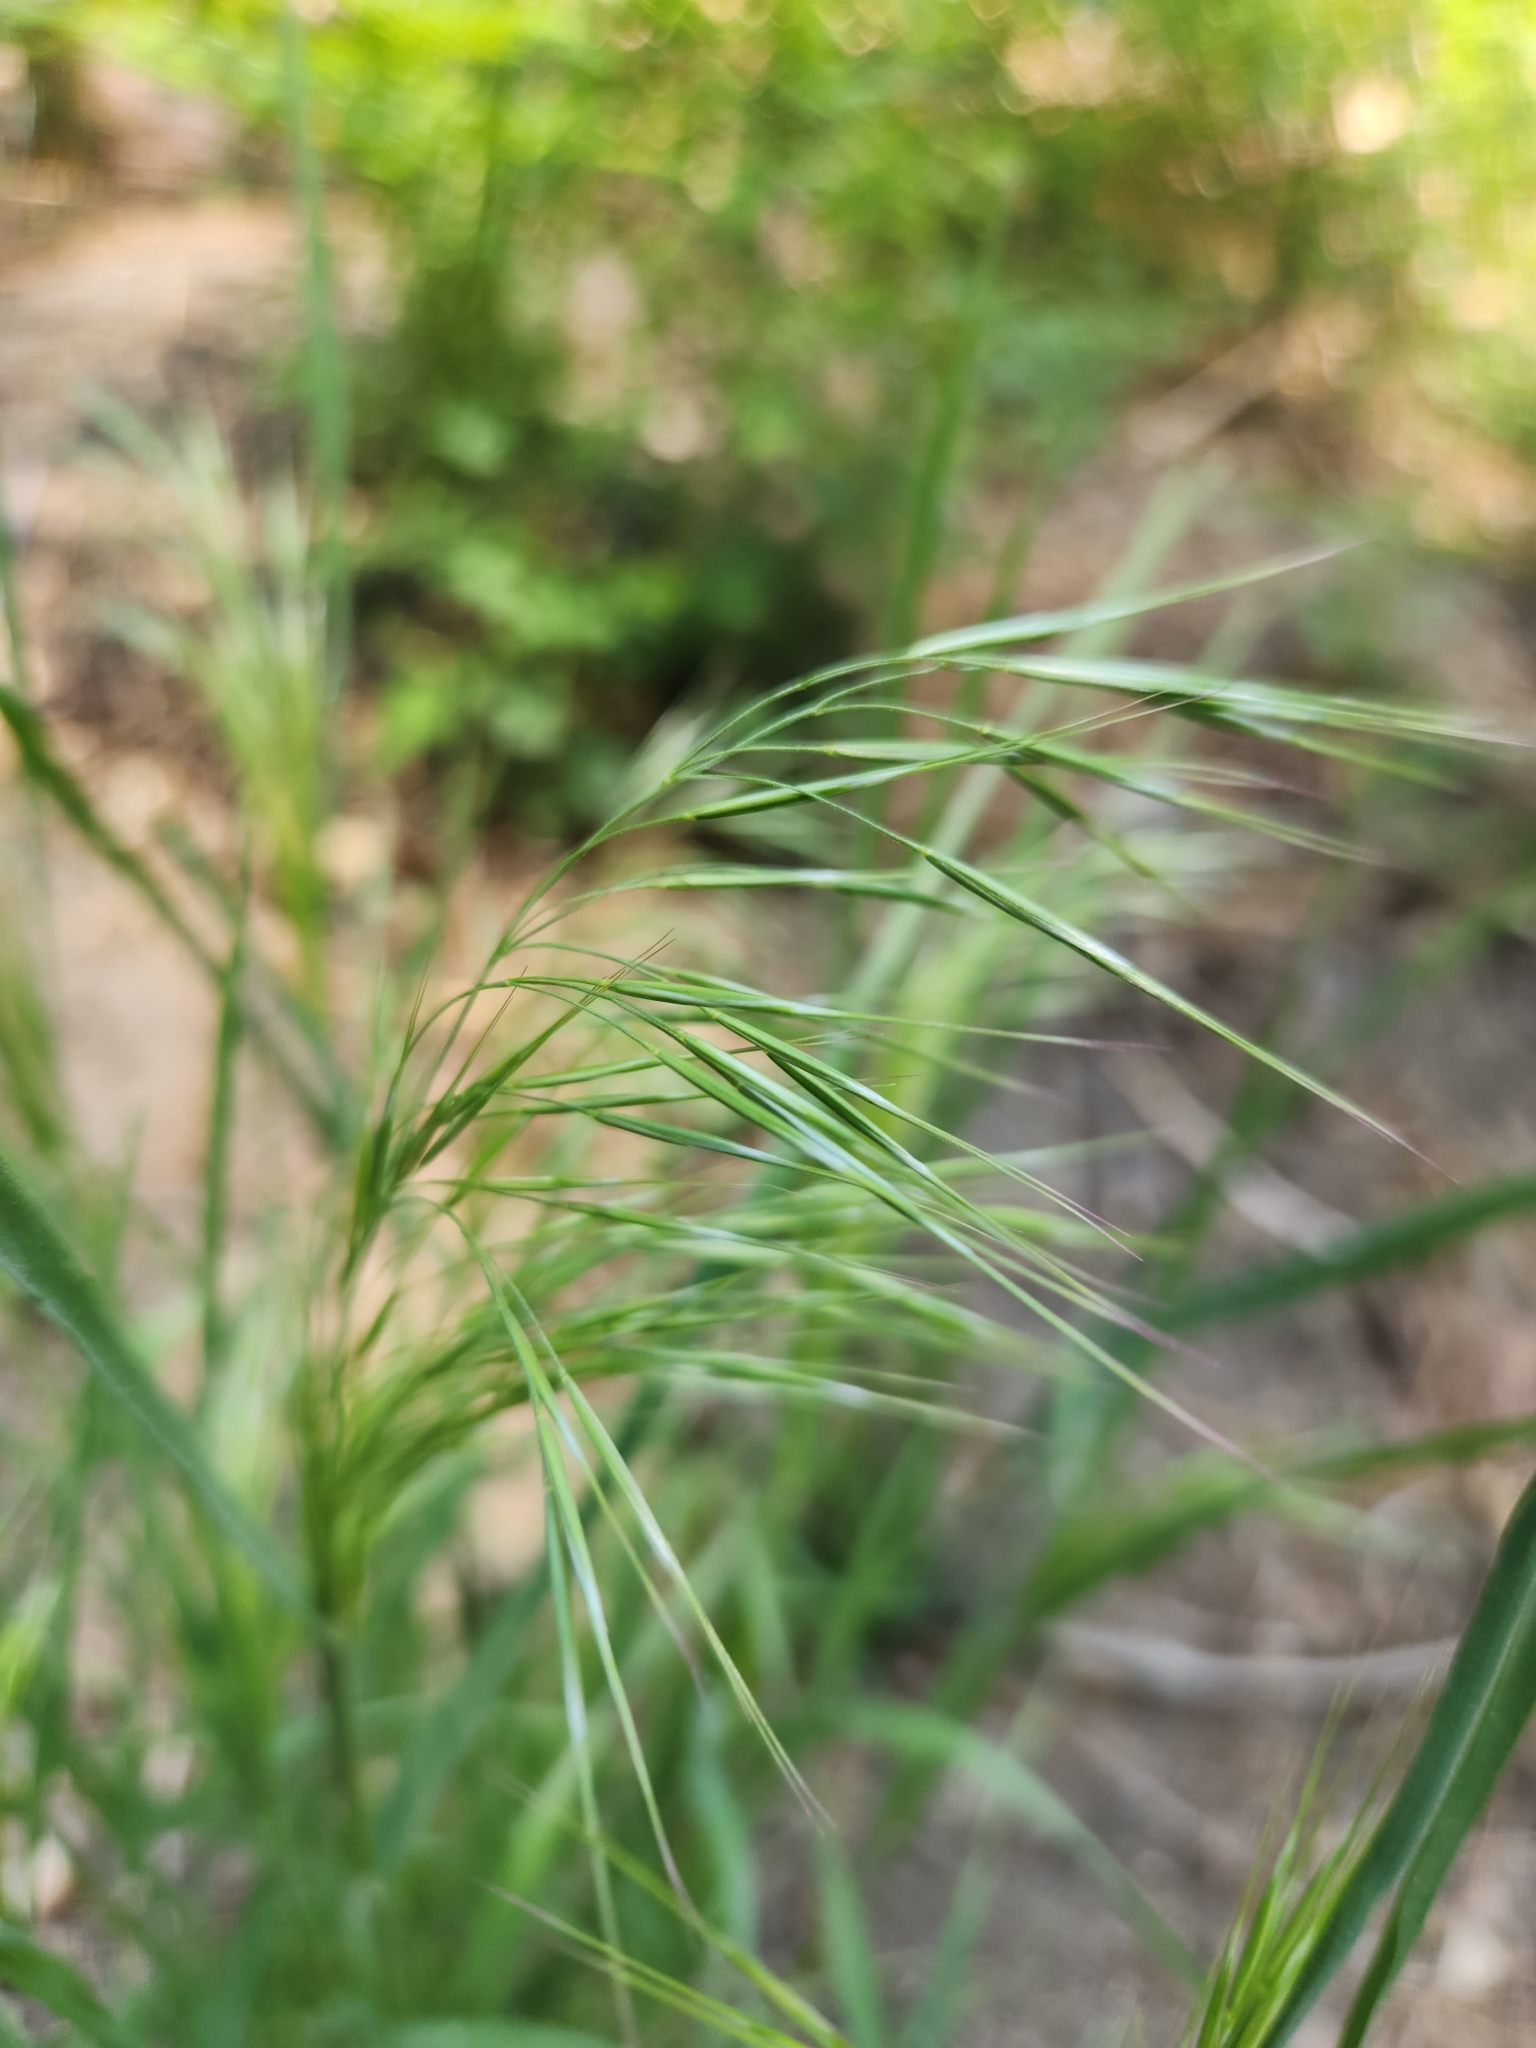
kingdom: Plantae
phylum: Tracheophyta
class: Liliopsida
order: Poales
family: Poaceae
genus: Bromus
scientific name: Bromus tectorum
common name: Cheatgrass
